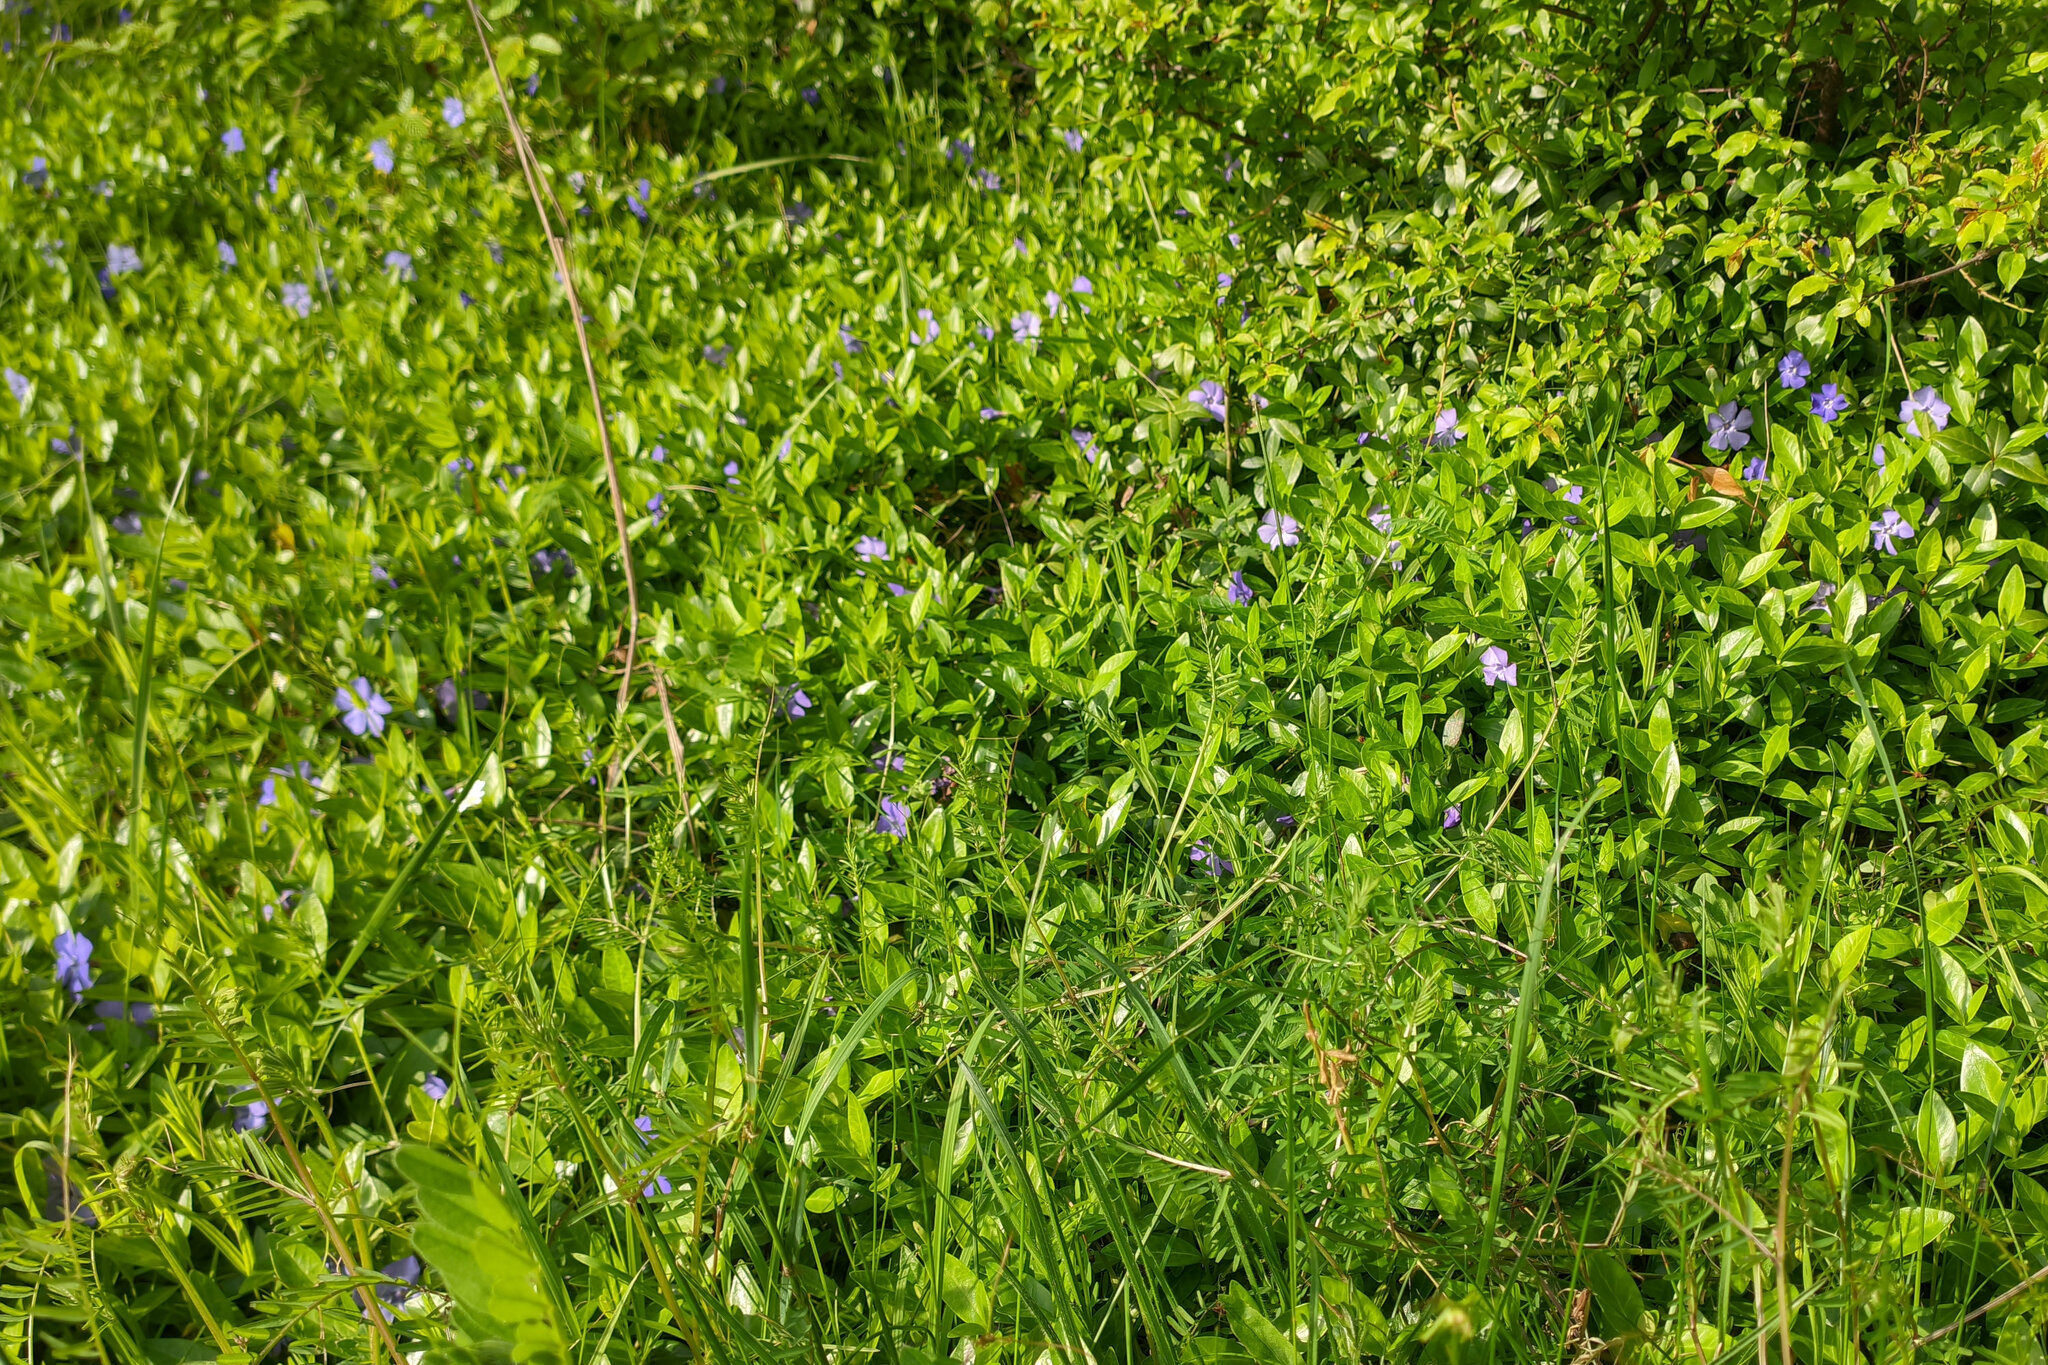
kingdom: Plantae
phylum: Tracheophyta
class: Magnoliopsida
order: Gentianales
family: Apocynaceae
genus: Vinca
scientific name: Vinca minor
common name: Lesser periwinkle
